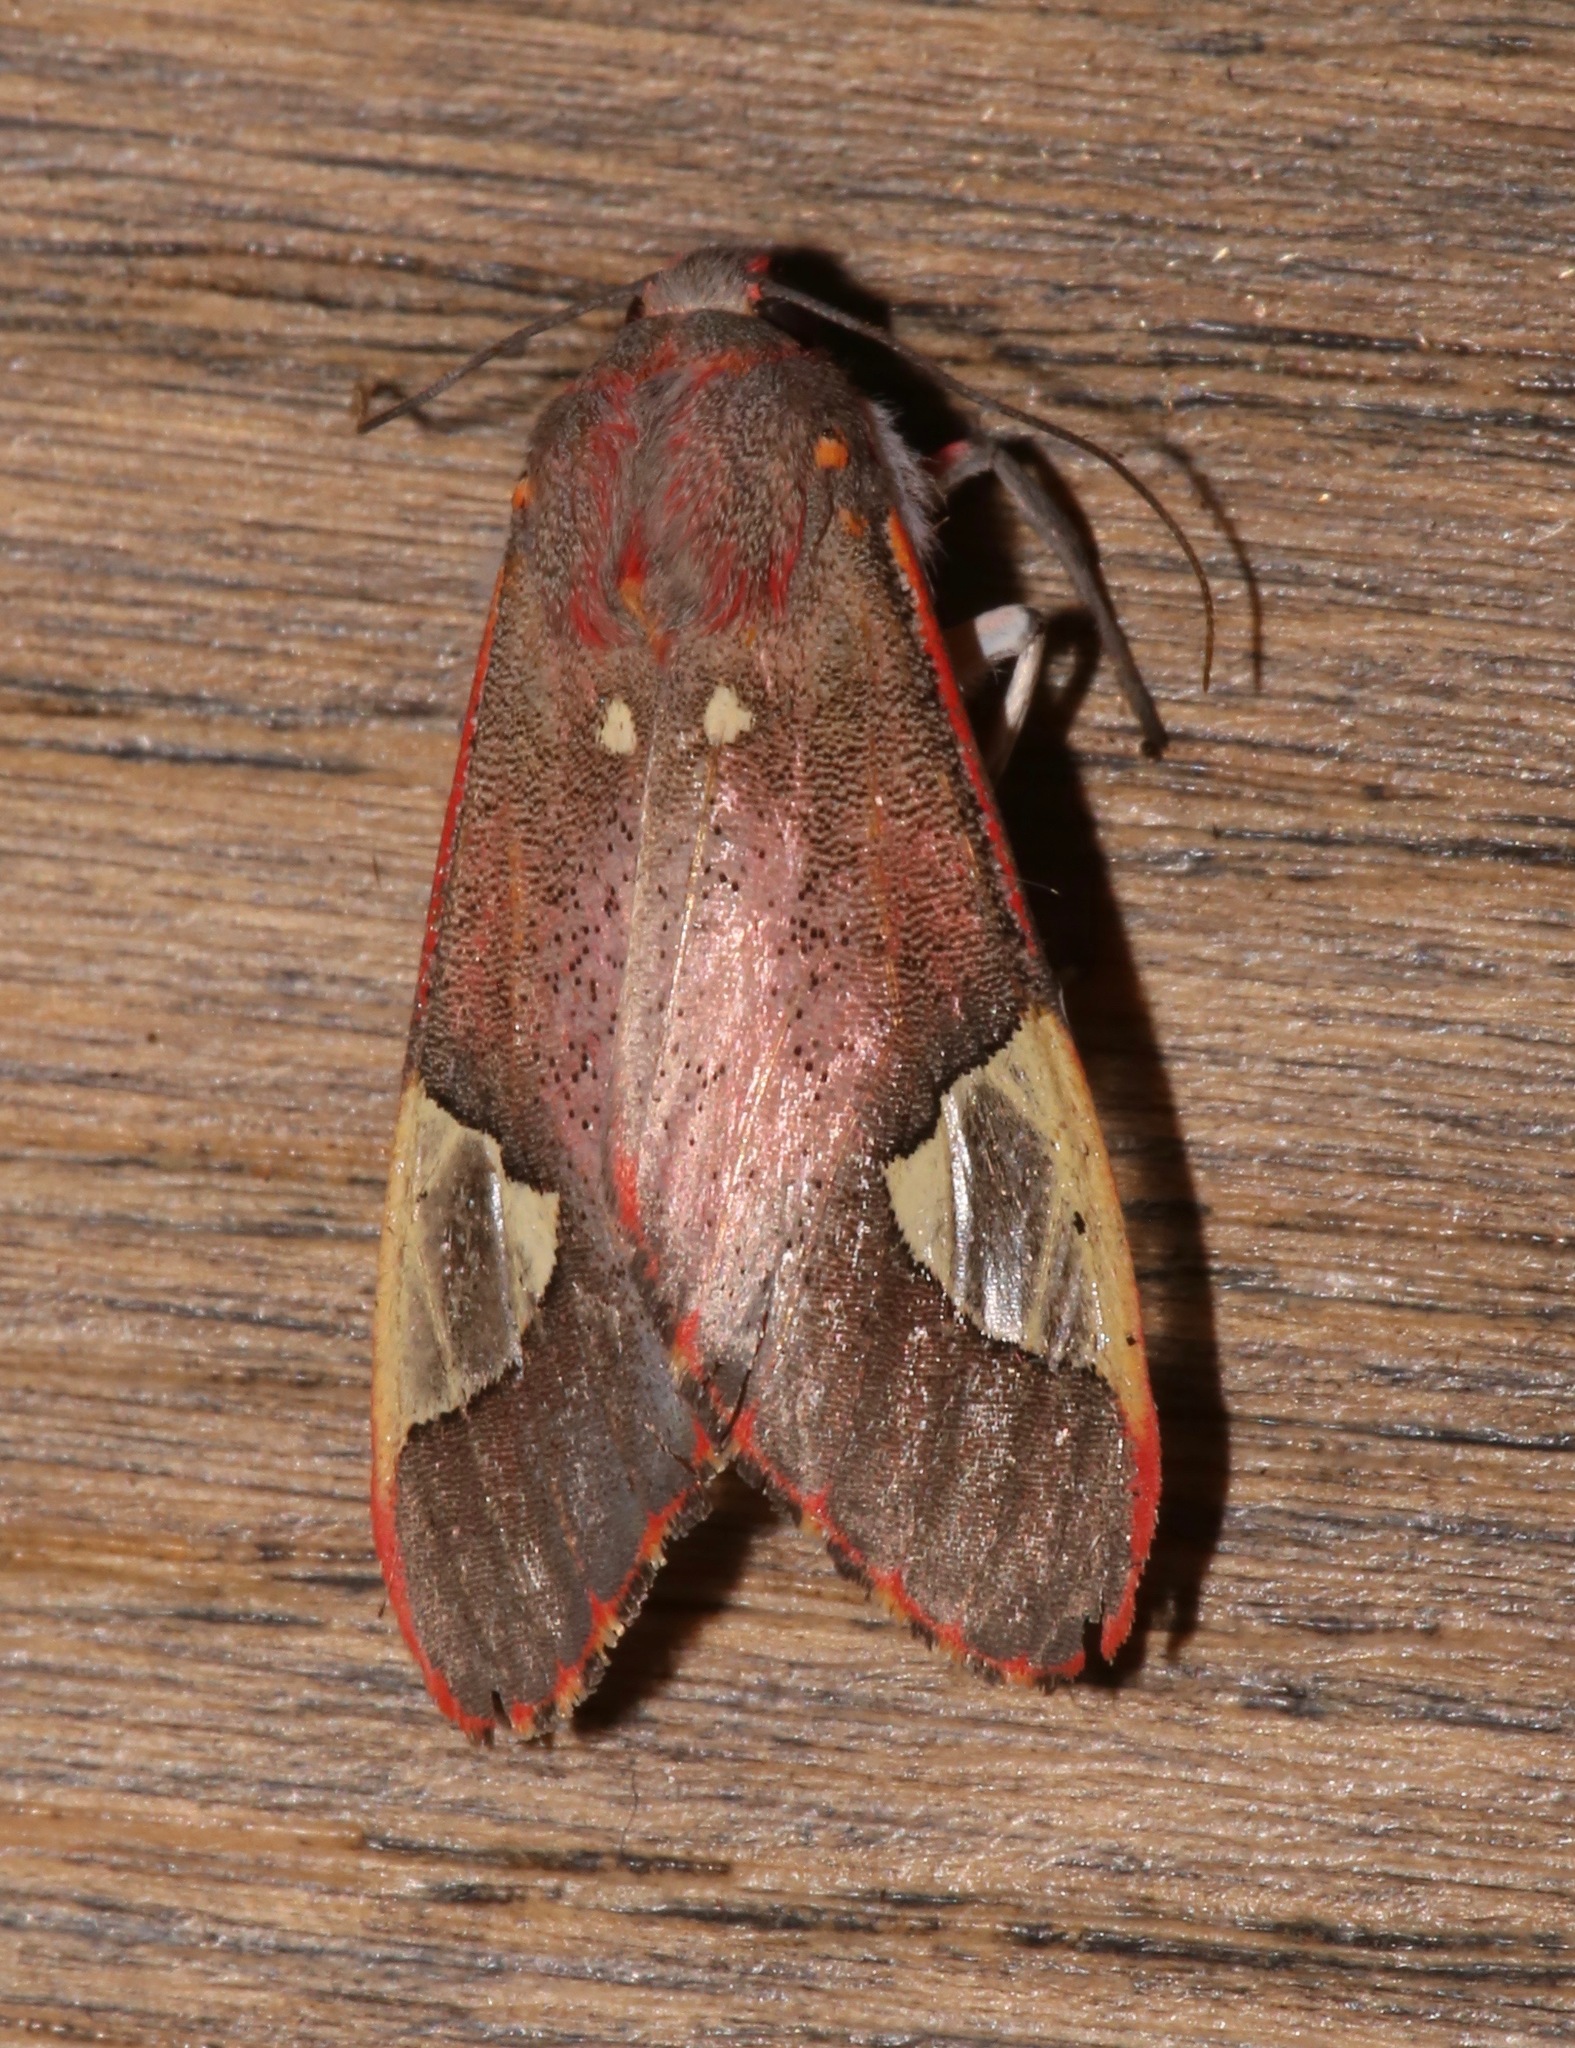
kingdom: Animalia
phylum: Arthropoda
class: Insecta
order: Lepidoptera
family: Erebidae
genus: Bertholdia
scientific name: Bertholdia trigona
